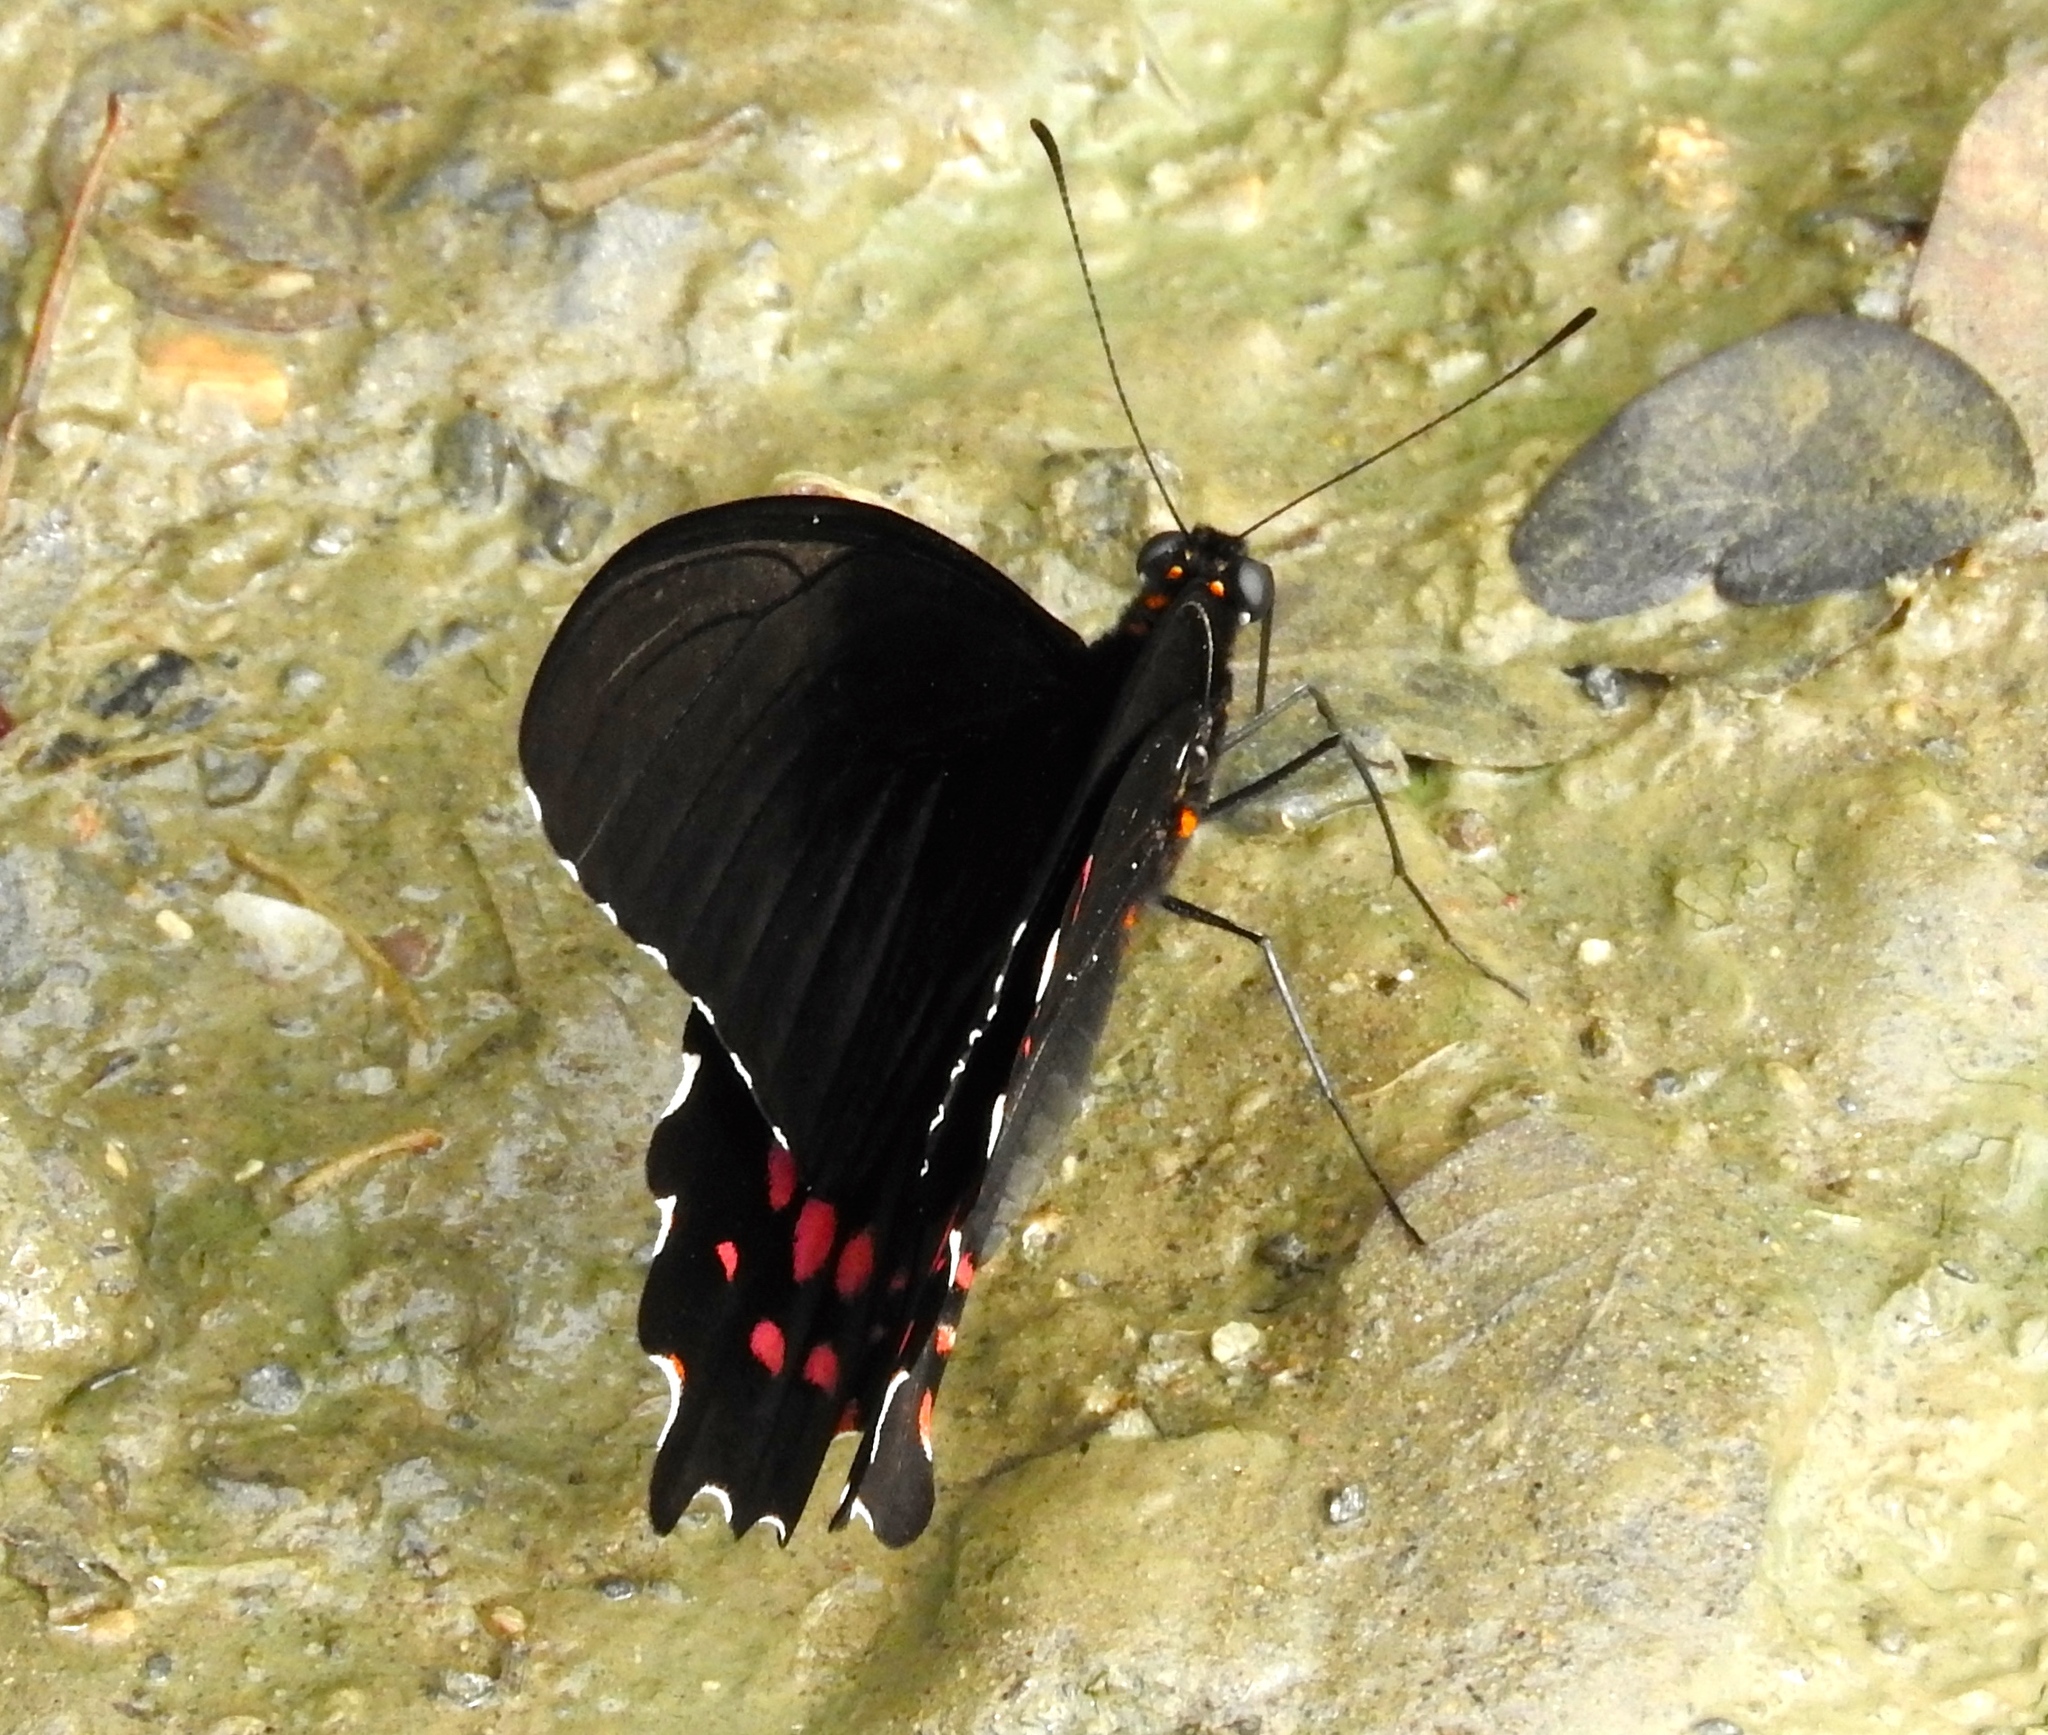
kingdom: Animalia
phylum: Arthropoda
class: Insecta
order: Lepidoptera
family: Papilionidae
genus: Heraclides
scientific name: Heraclides rogeri
